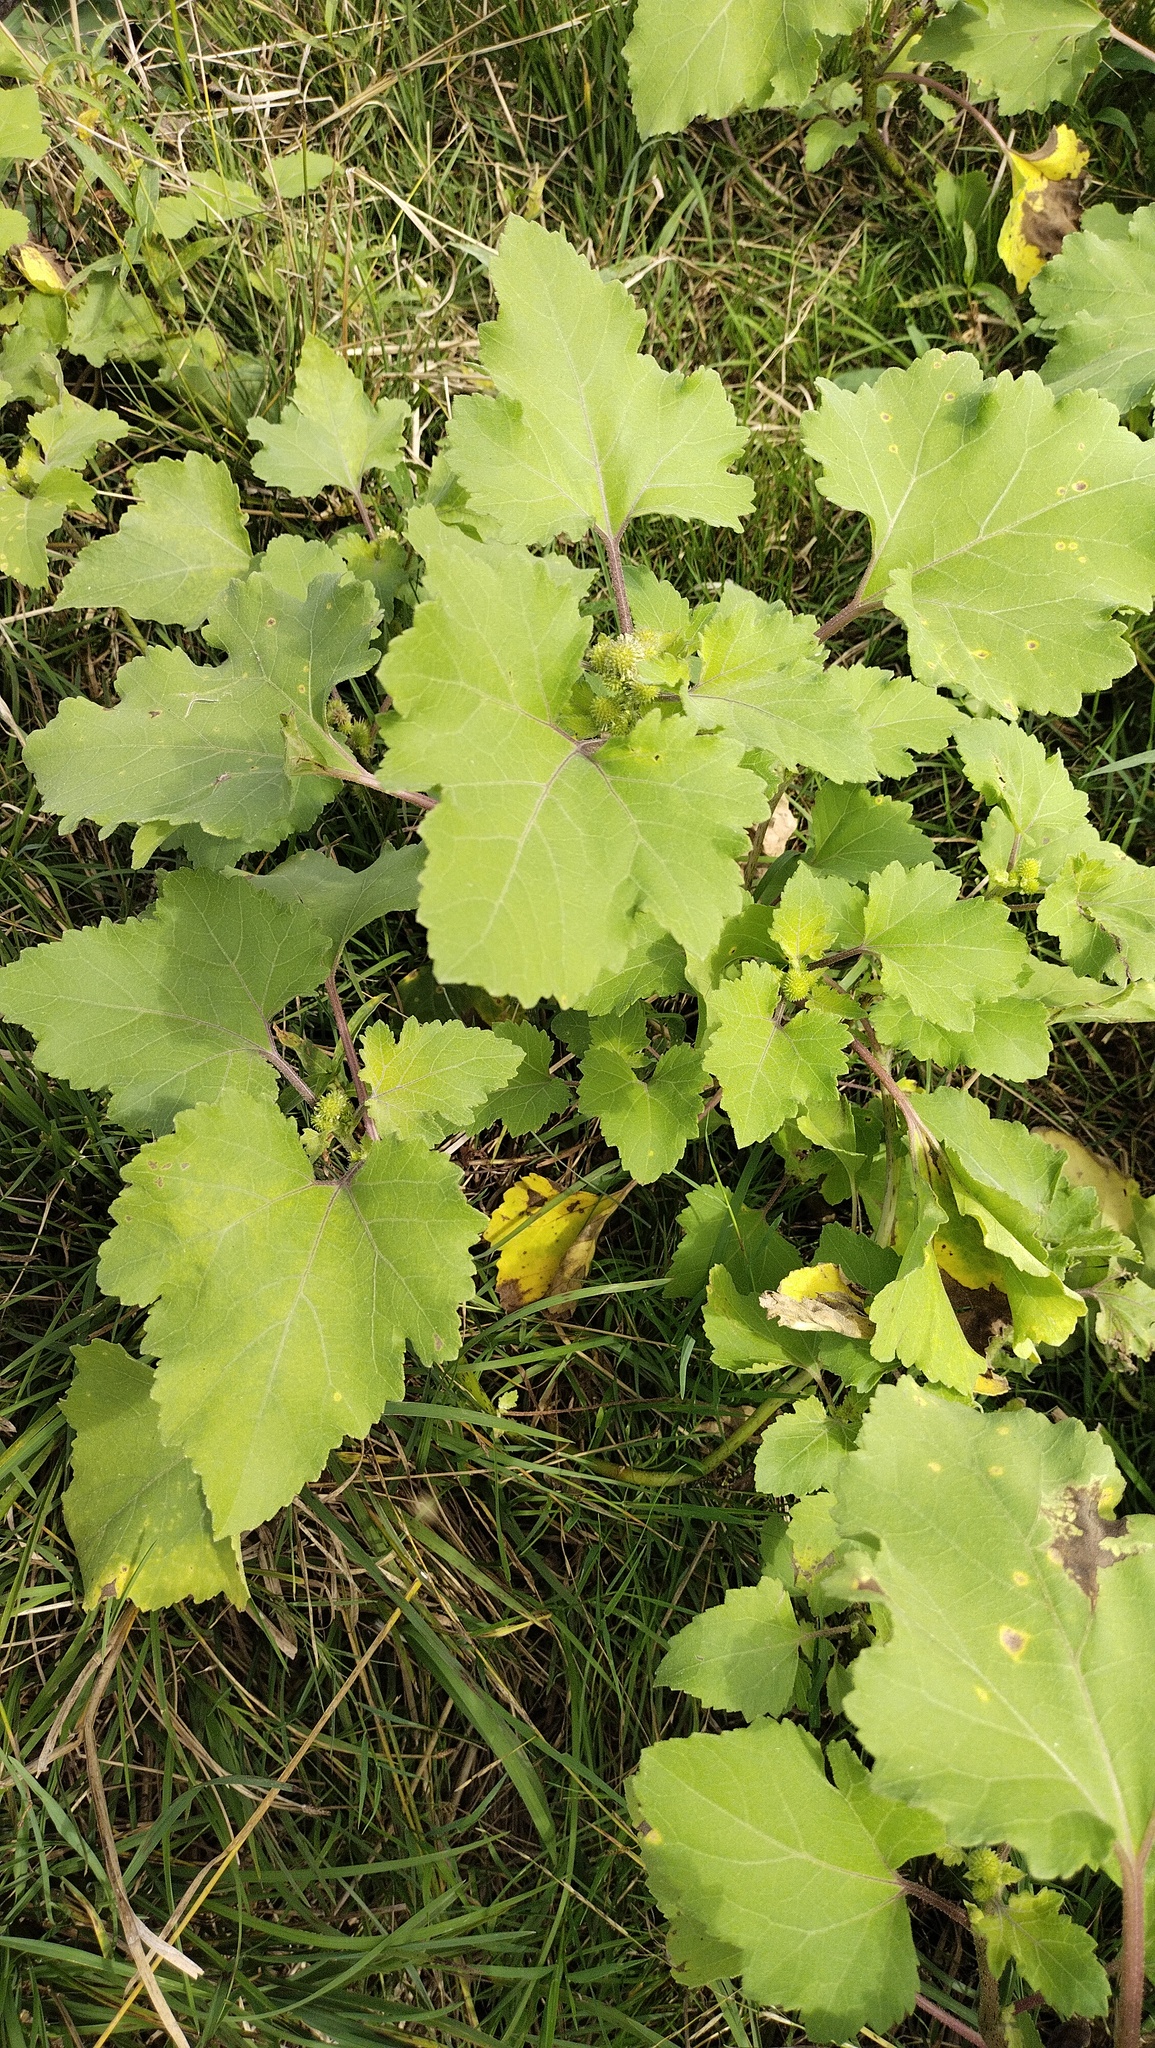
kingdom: Plantae
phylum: Tracheophyta
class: Magnoliopsida
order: Asterales
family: Asteraceae
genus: Xanthium
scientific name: Xanthium orientale
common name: Californian burr
